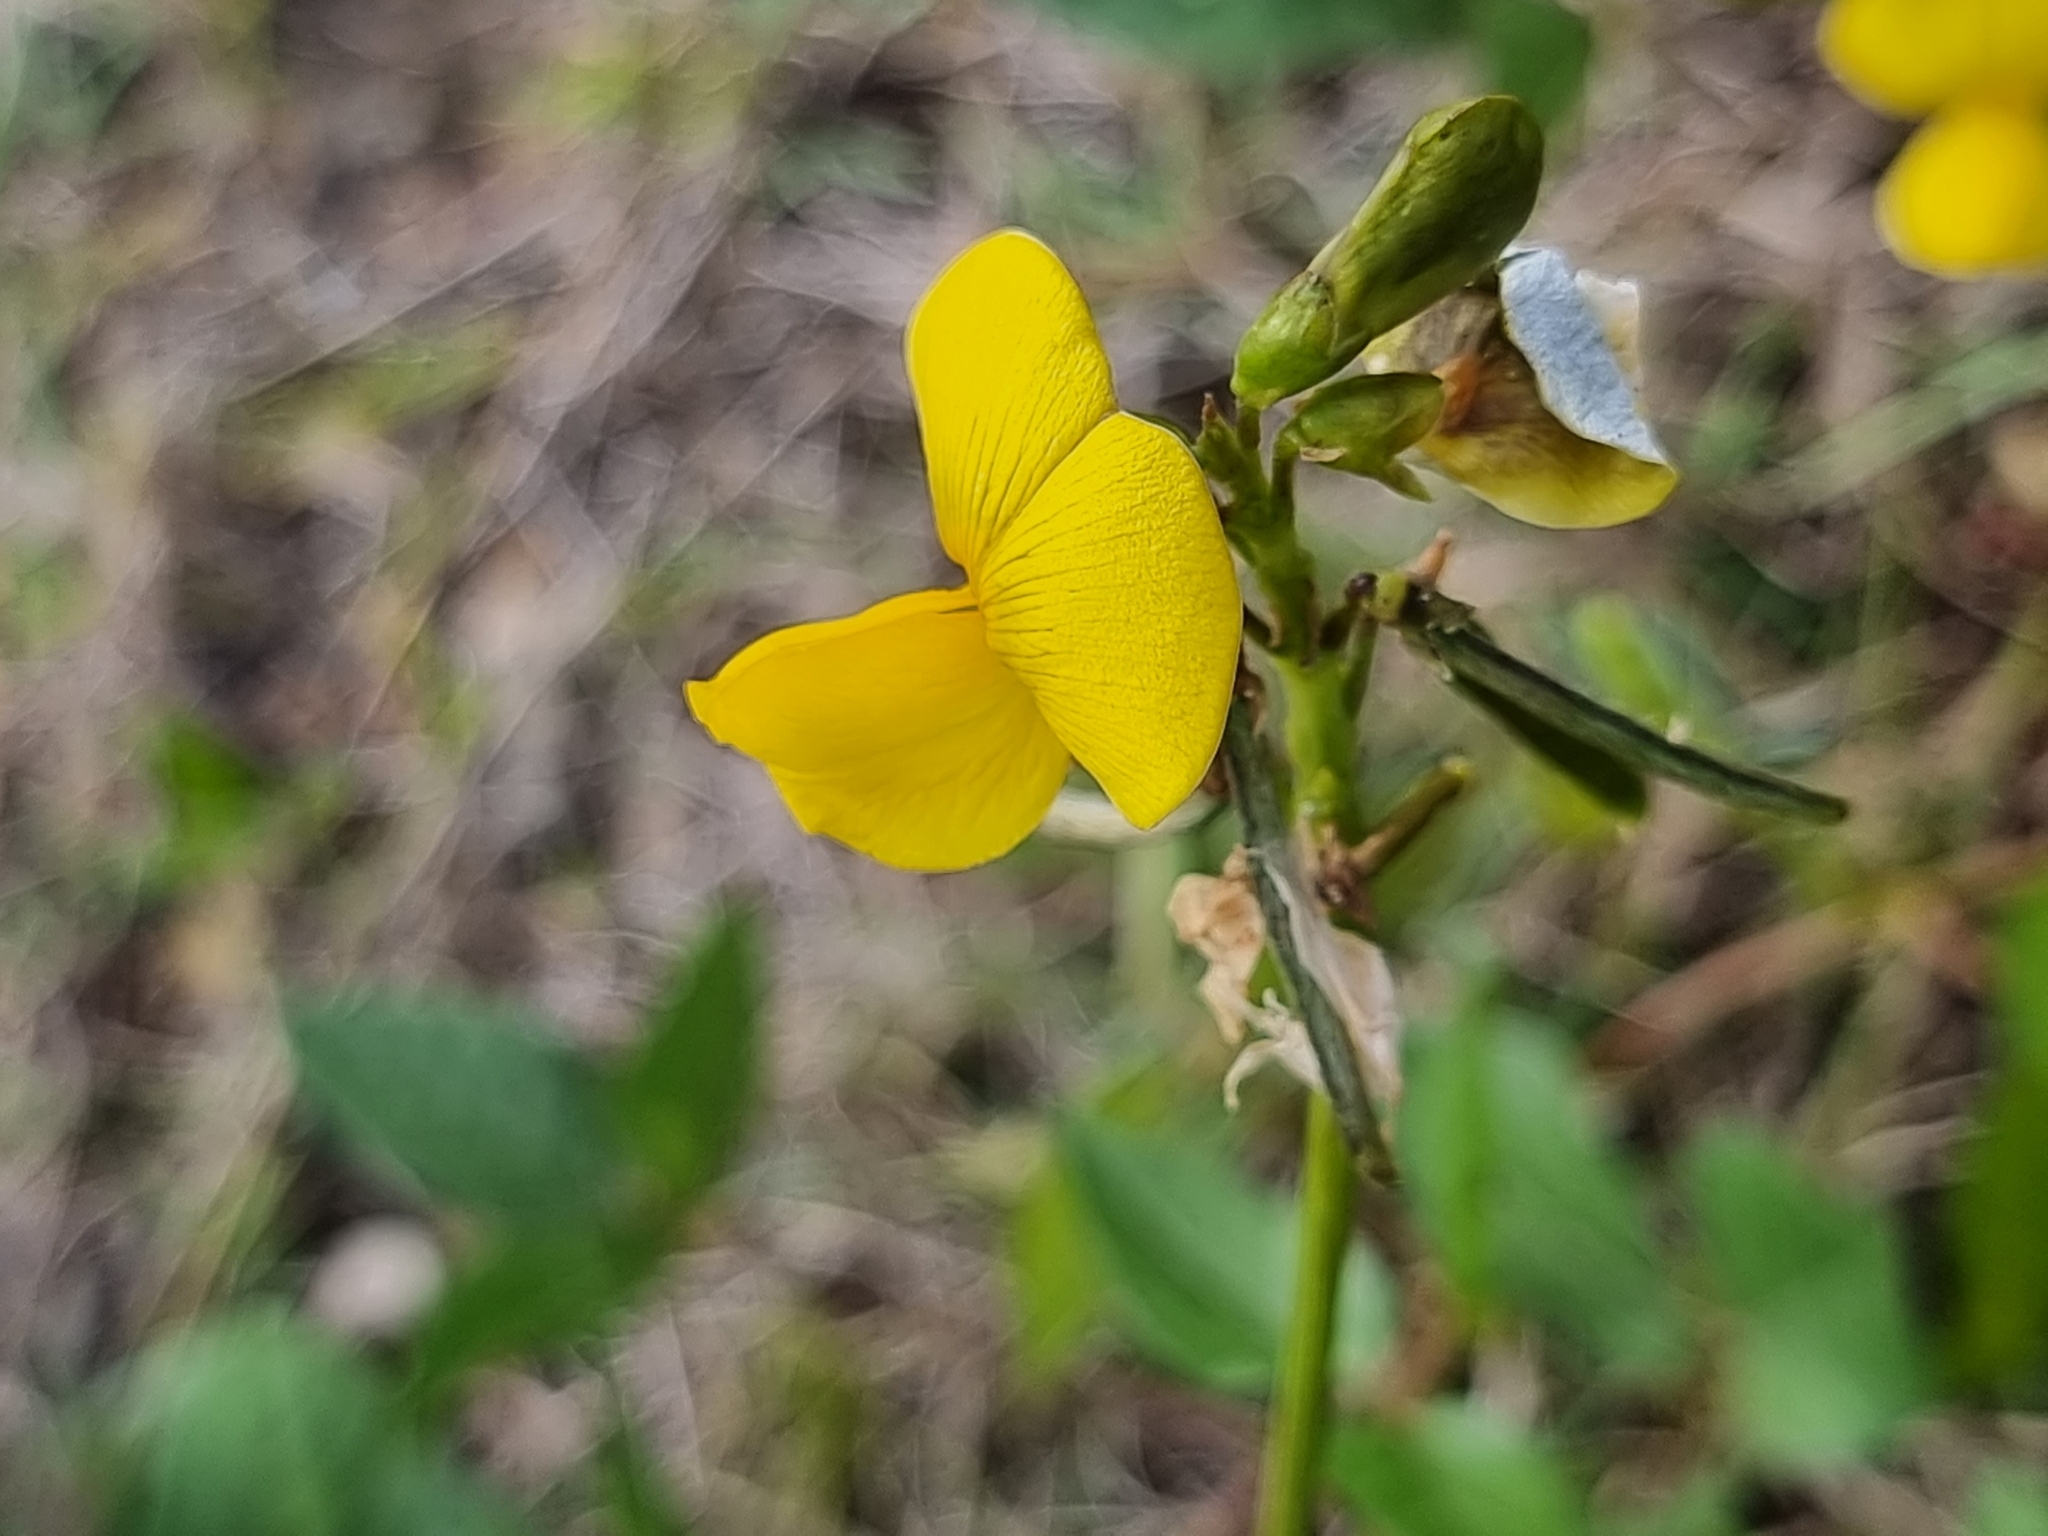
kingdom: Plantae
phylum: Tracheophyta
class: Magnoliopsida
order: Fabales
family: Fabaceae
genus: Vigna
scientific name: Vigna luteola
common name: Hairypod cowpea
